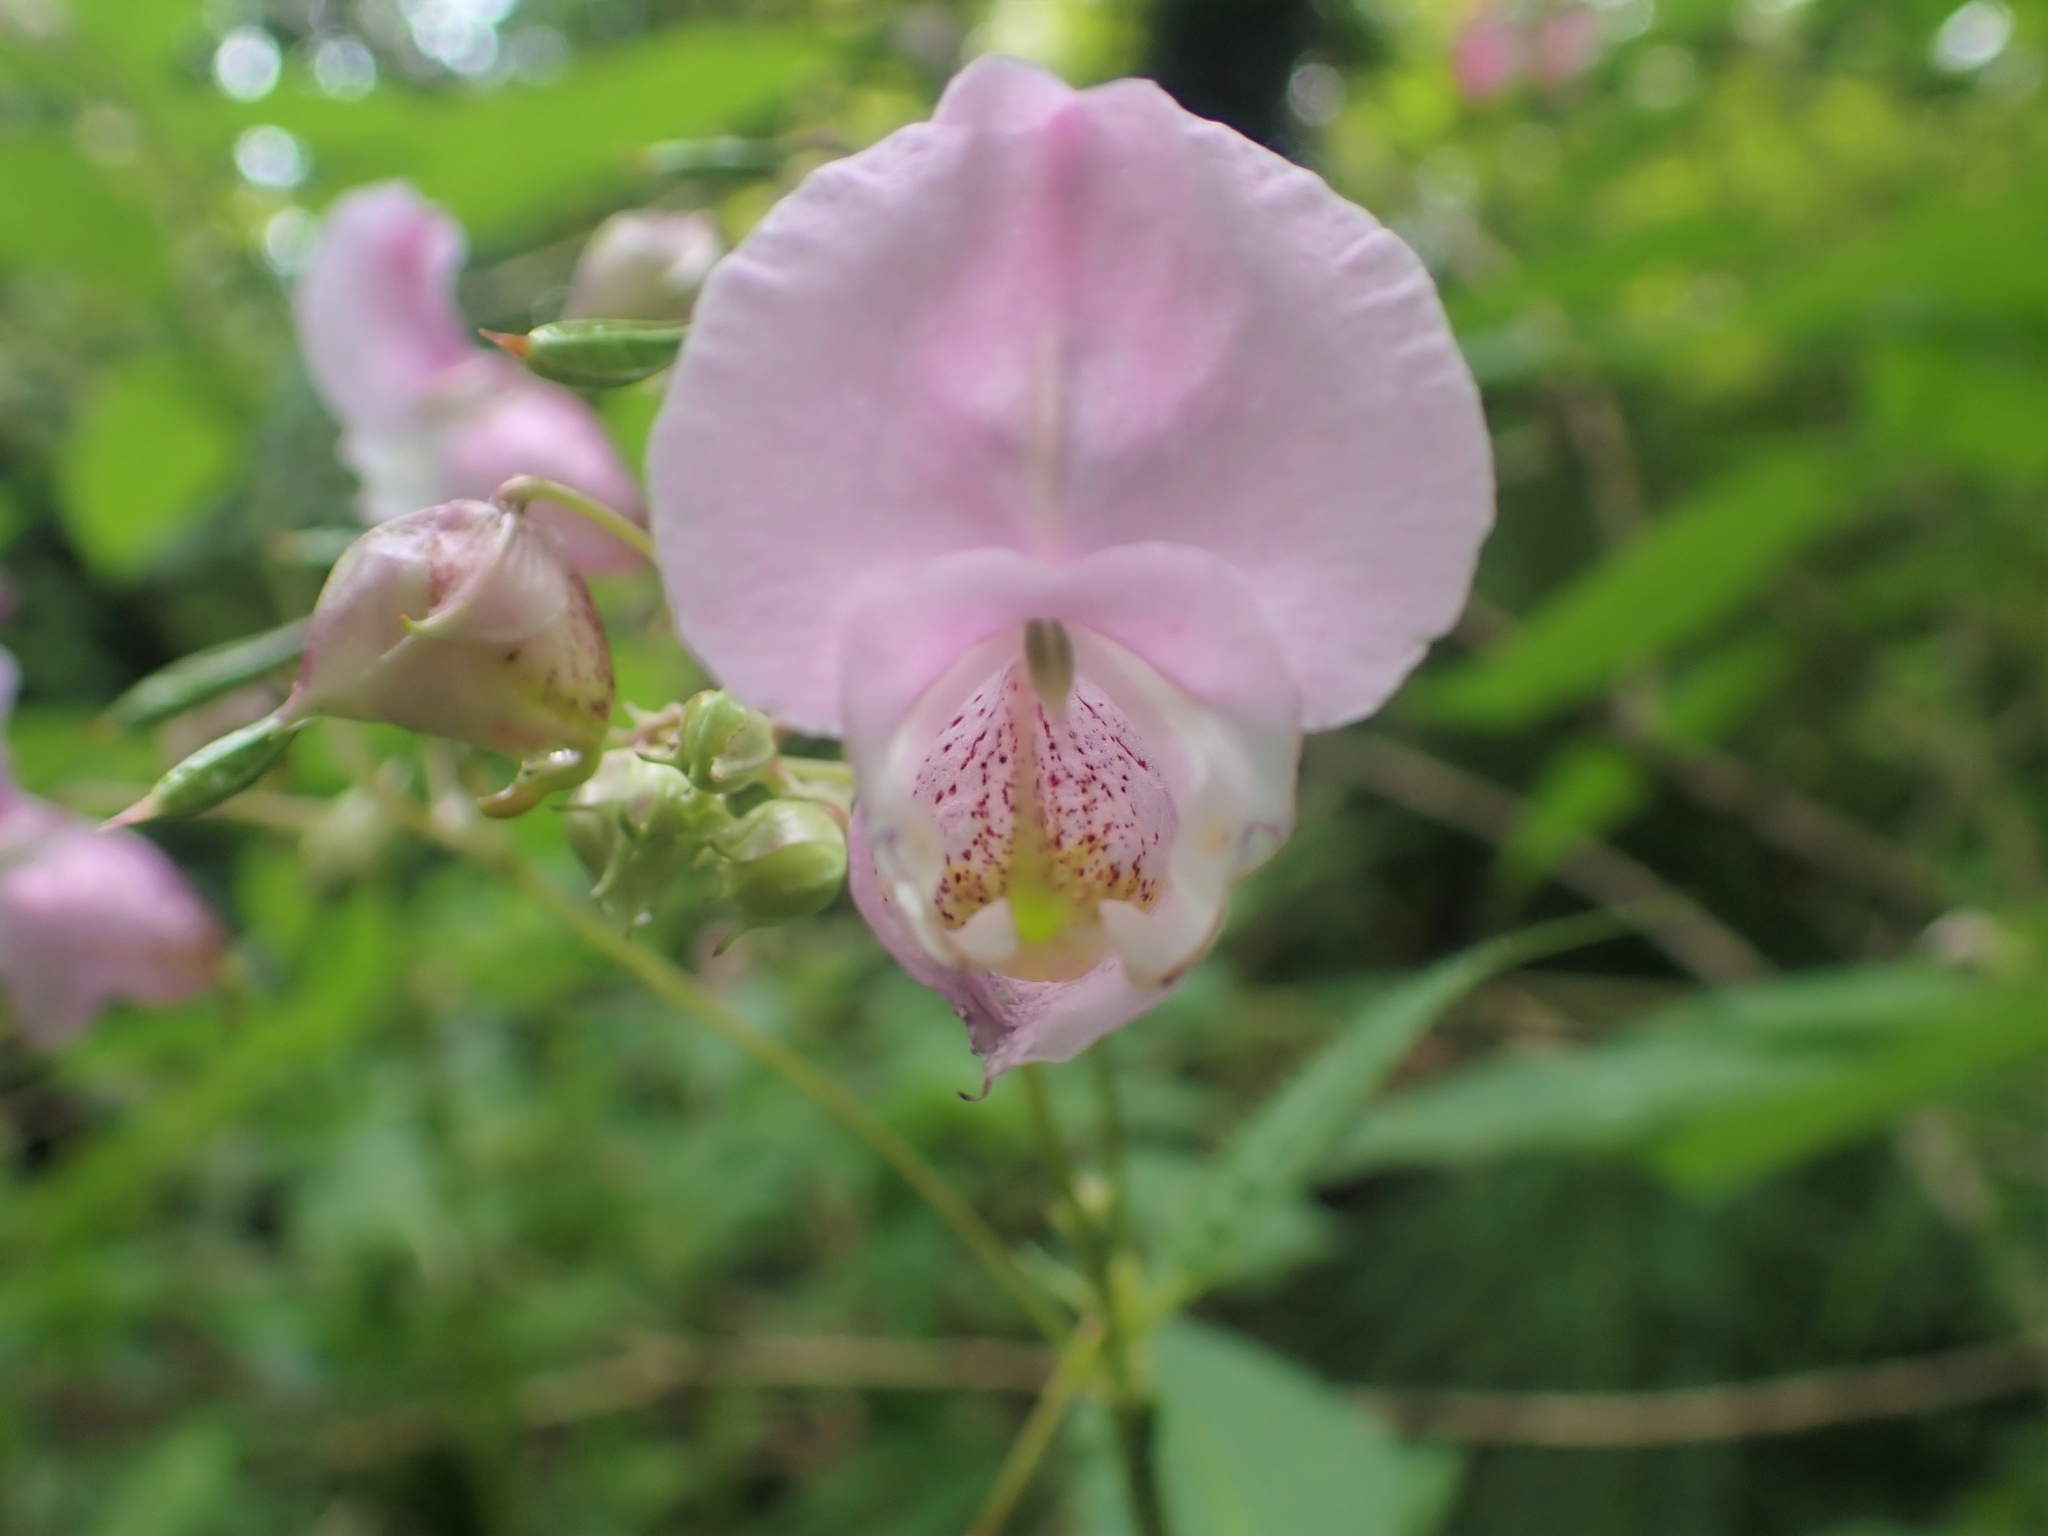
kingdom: Plantae
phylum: Tracheophyta
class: Magnoliopsida
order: Ericales
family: Balsaminaceae
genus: Impatiens
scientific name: Impatiens glandulifera
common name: Himalayan balsam
